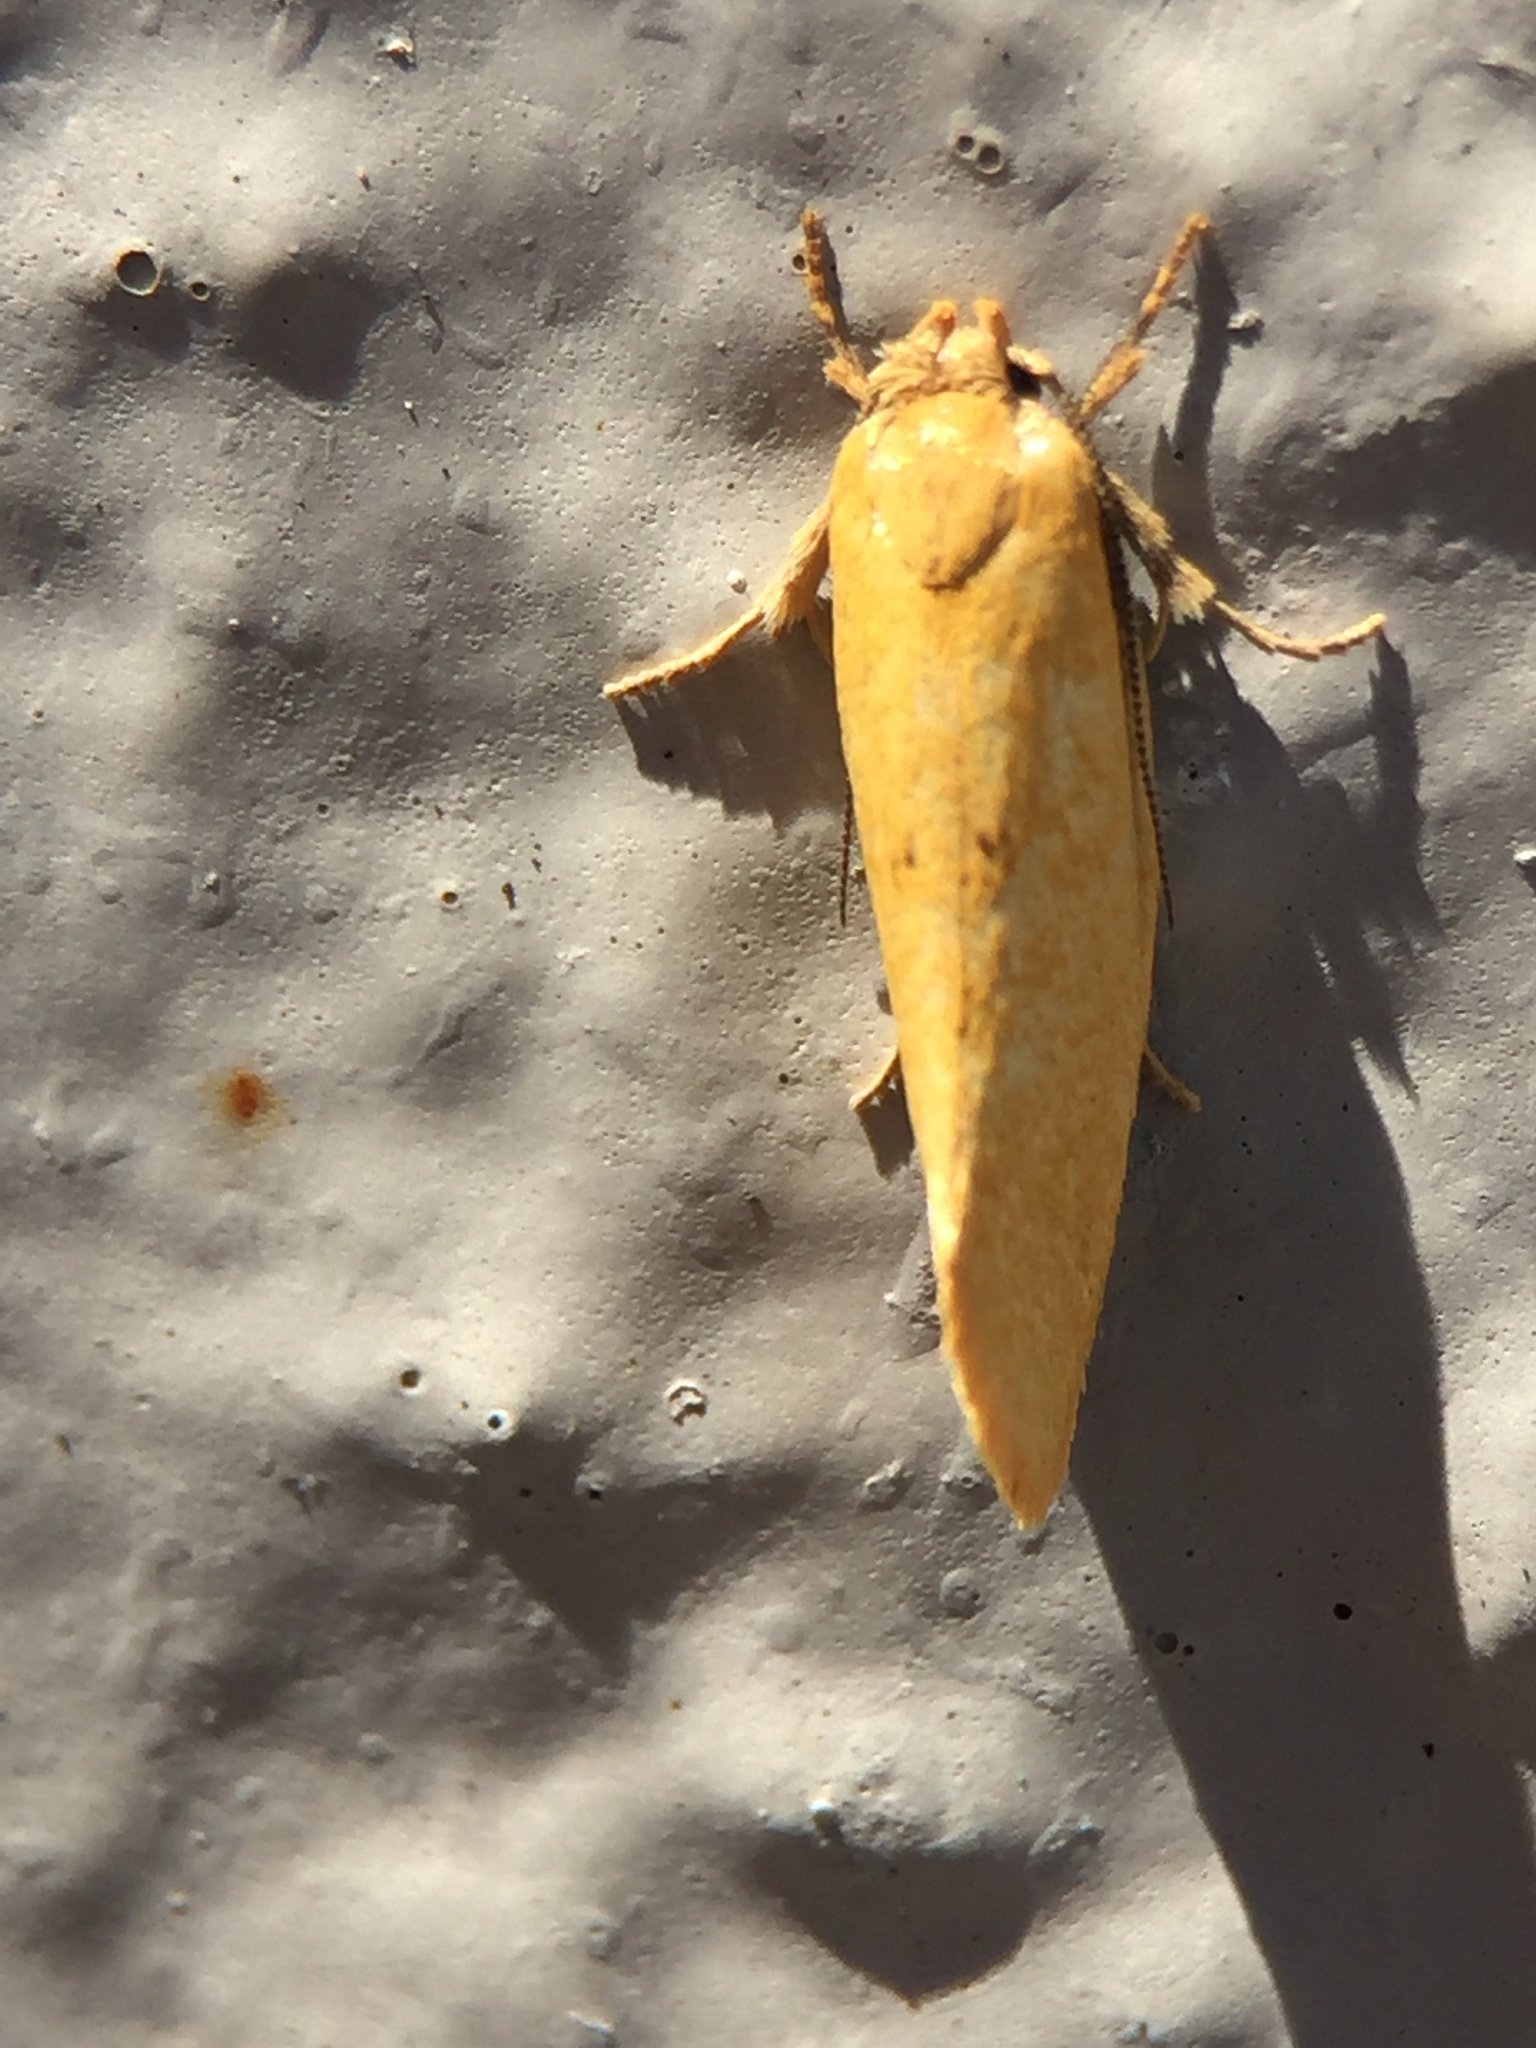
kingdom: Animalia
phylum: Arthropoda
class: Insecta
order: Lepidoptera
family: Oecophoridae
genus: Tingena
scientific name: Tingena armigerella
